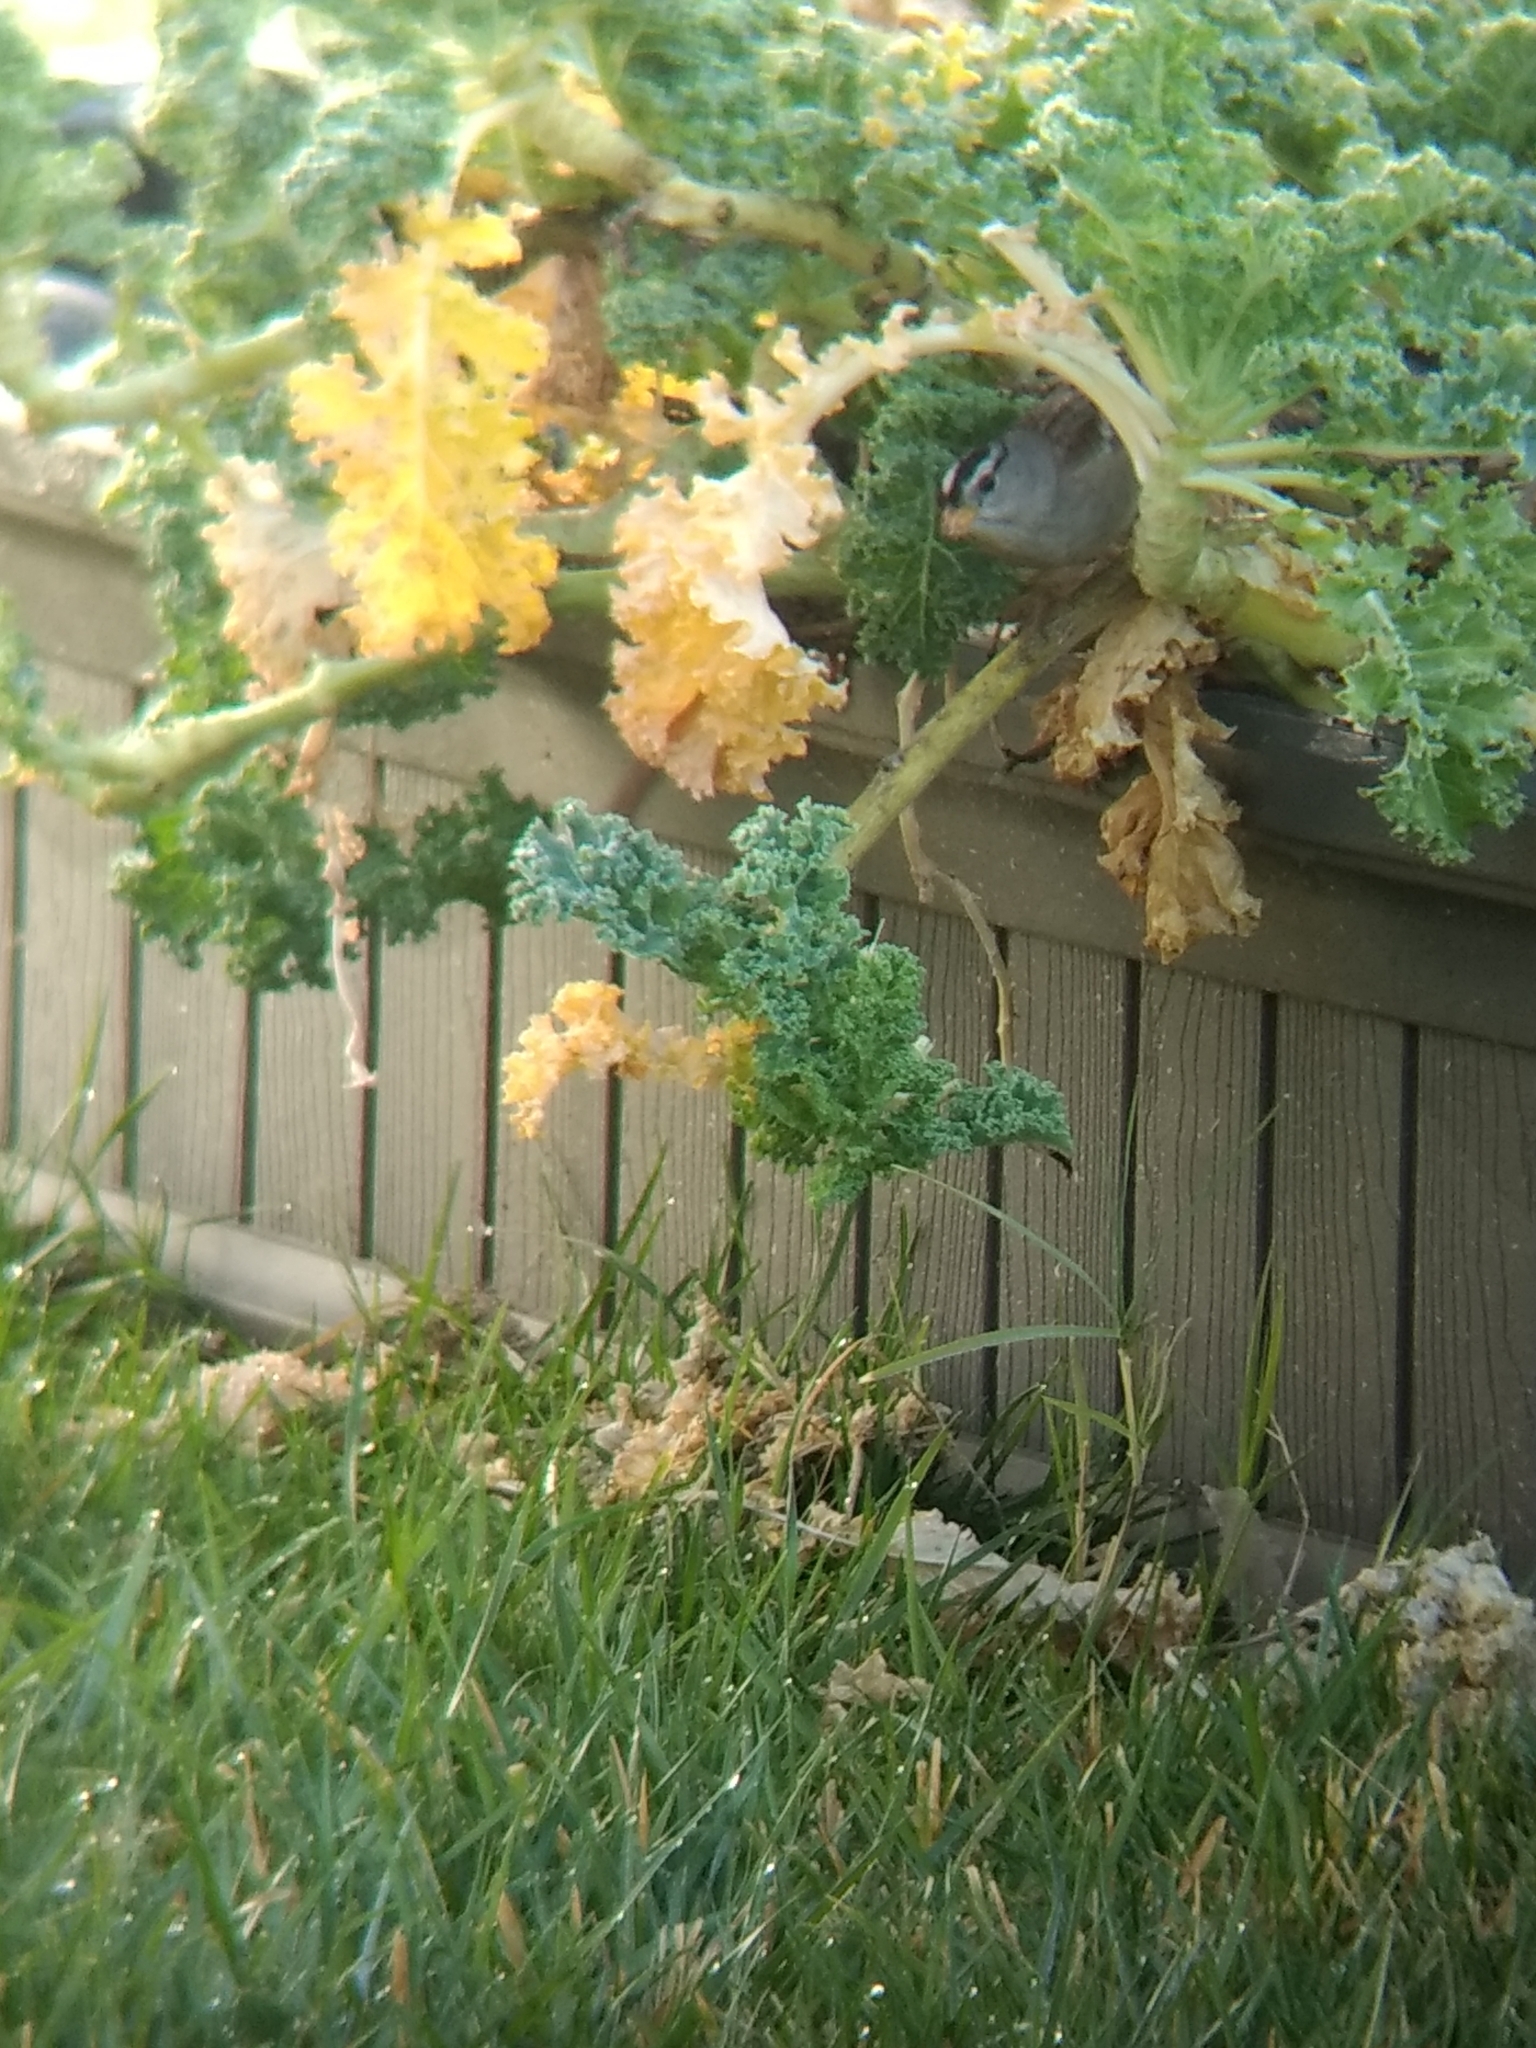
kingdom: Animalia
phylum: Chordata
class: Aves
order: Passeriformes
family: Passerellidae
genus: Zonotrichia
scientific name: Zonotrichia leucophrys
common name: White-crowned sparrow
